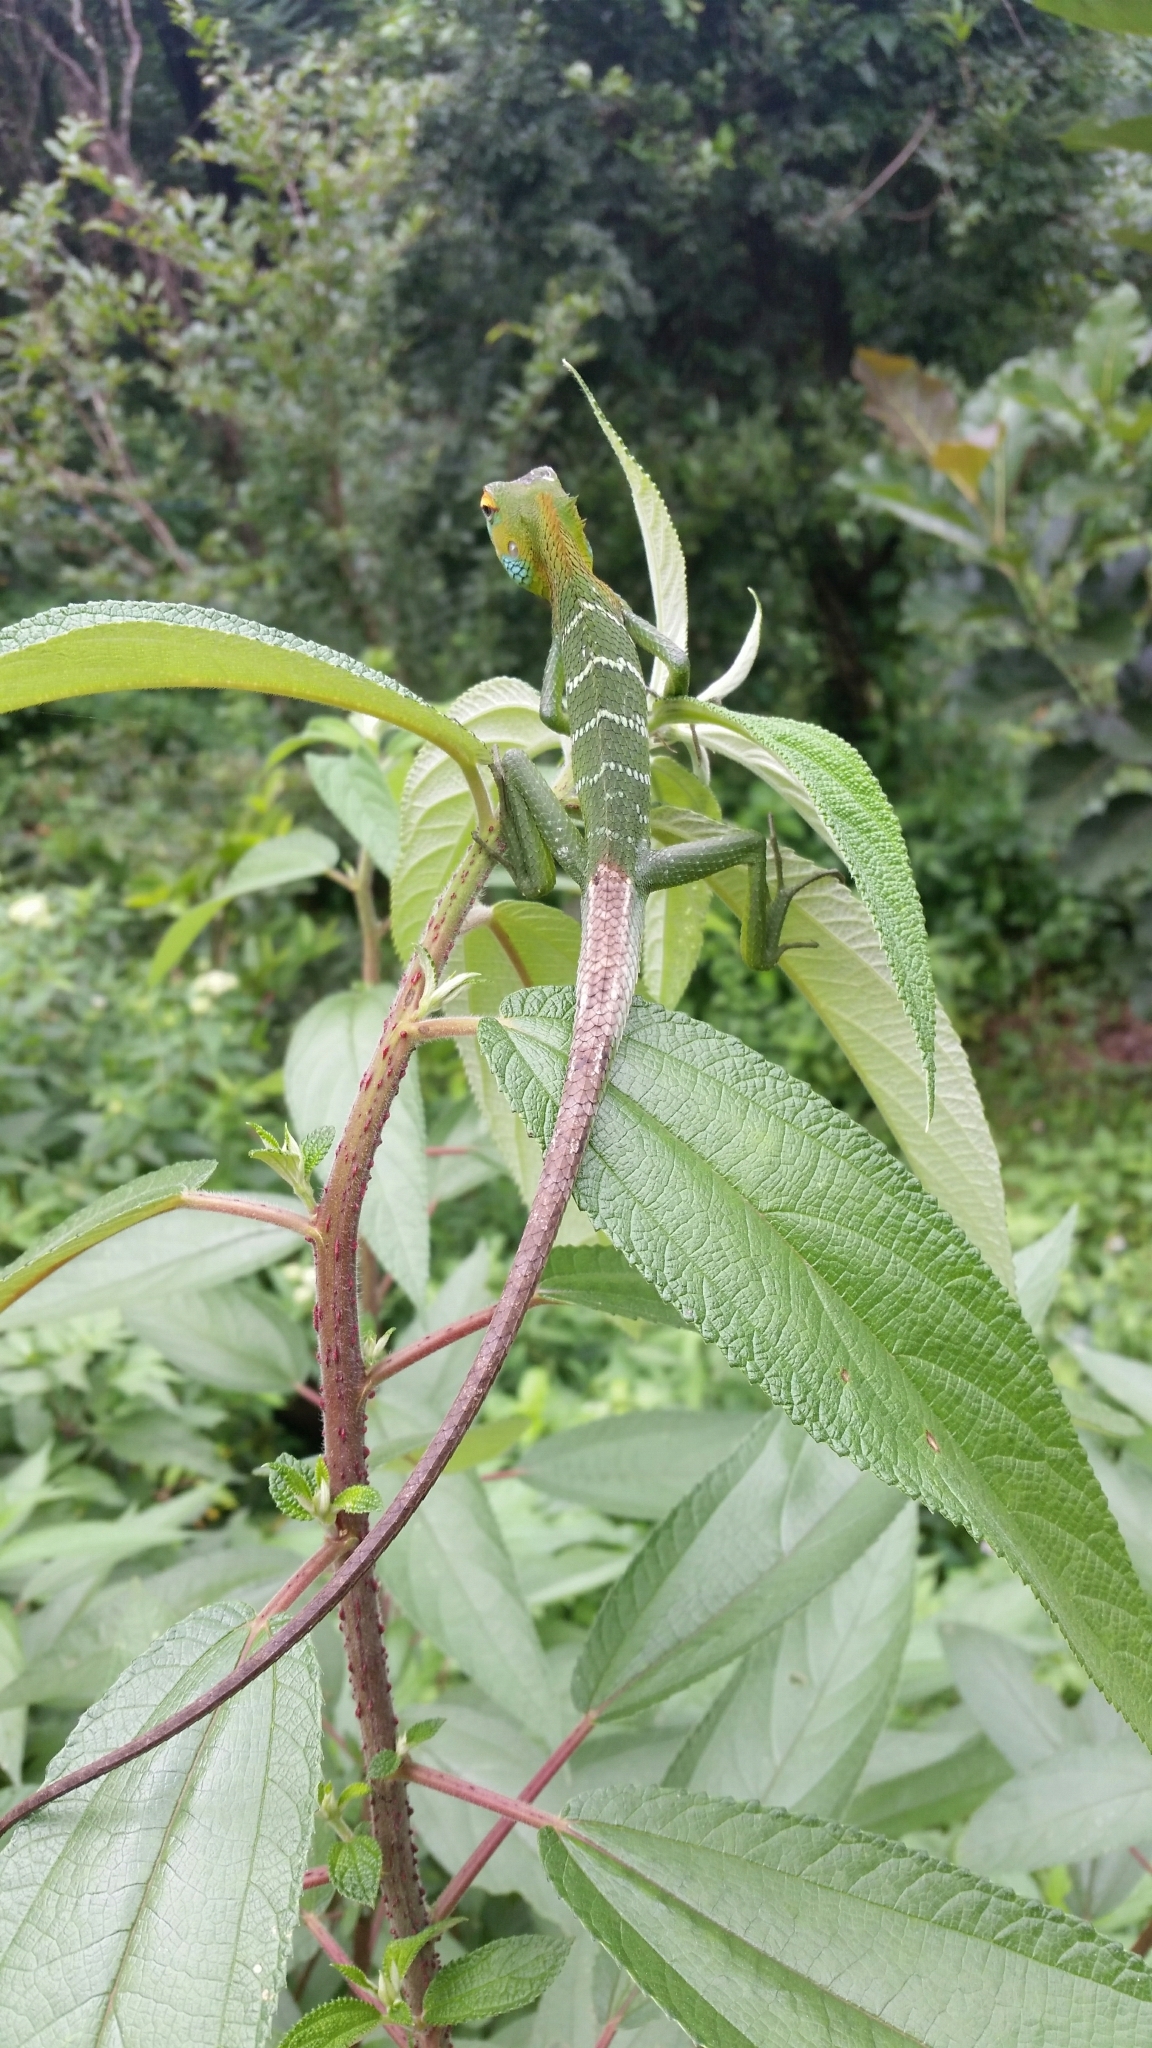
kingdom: Animalia
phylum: Chordata
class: Squamata
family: Agamidae
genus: Calotes
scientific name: Calotes calotes
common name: Common green forest lizard
